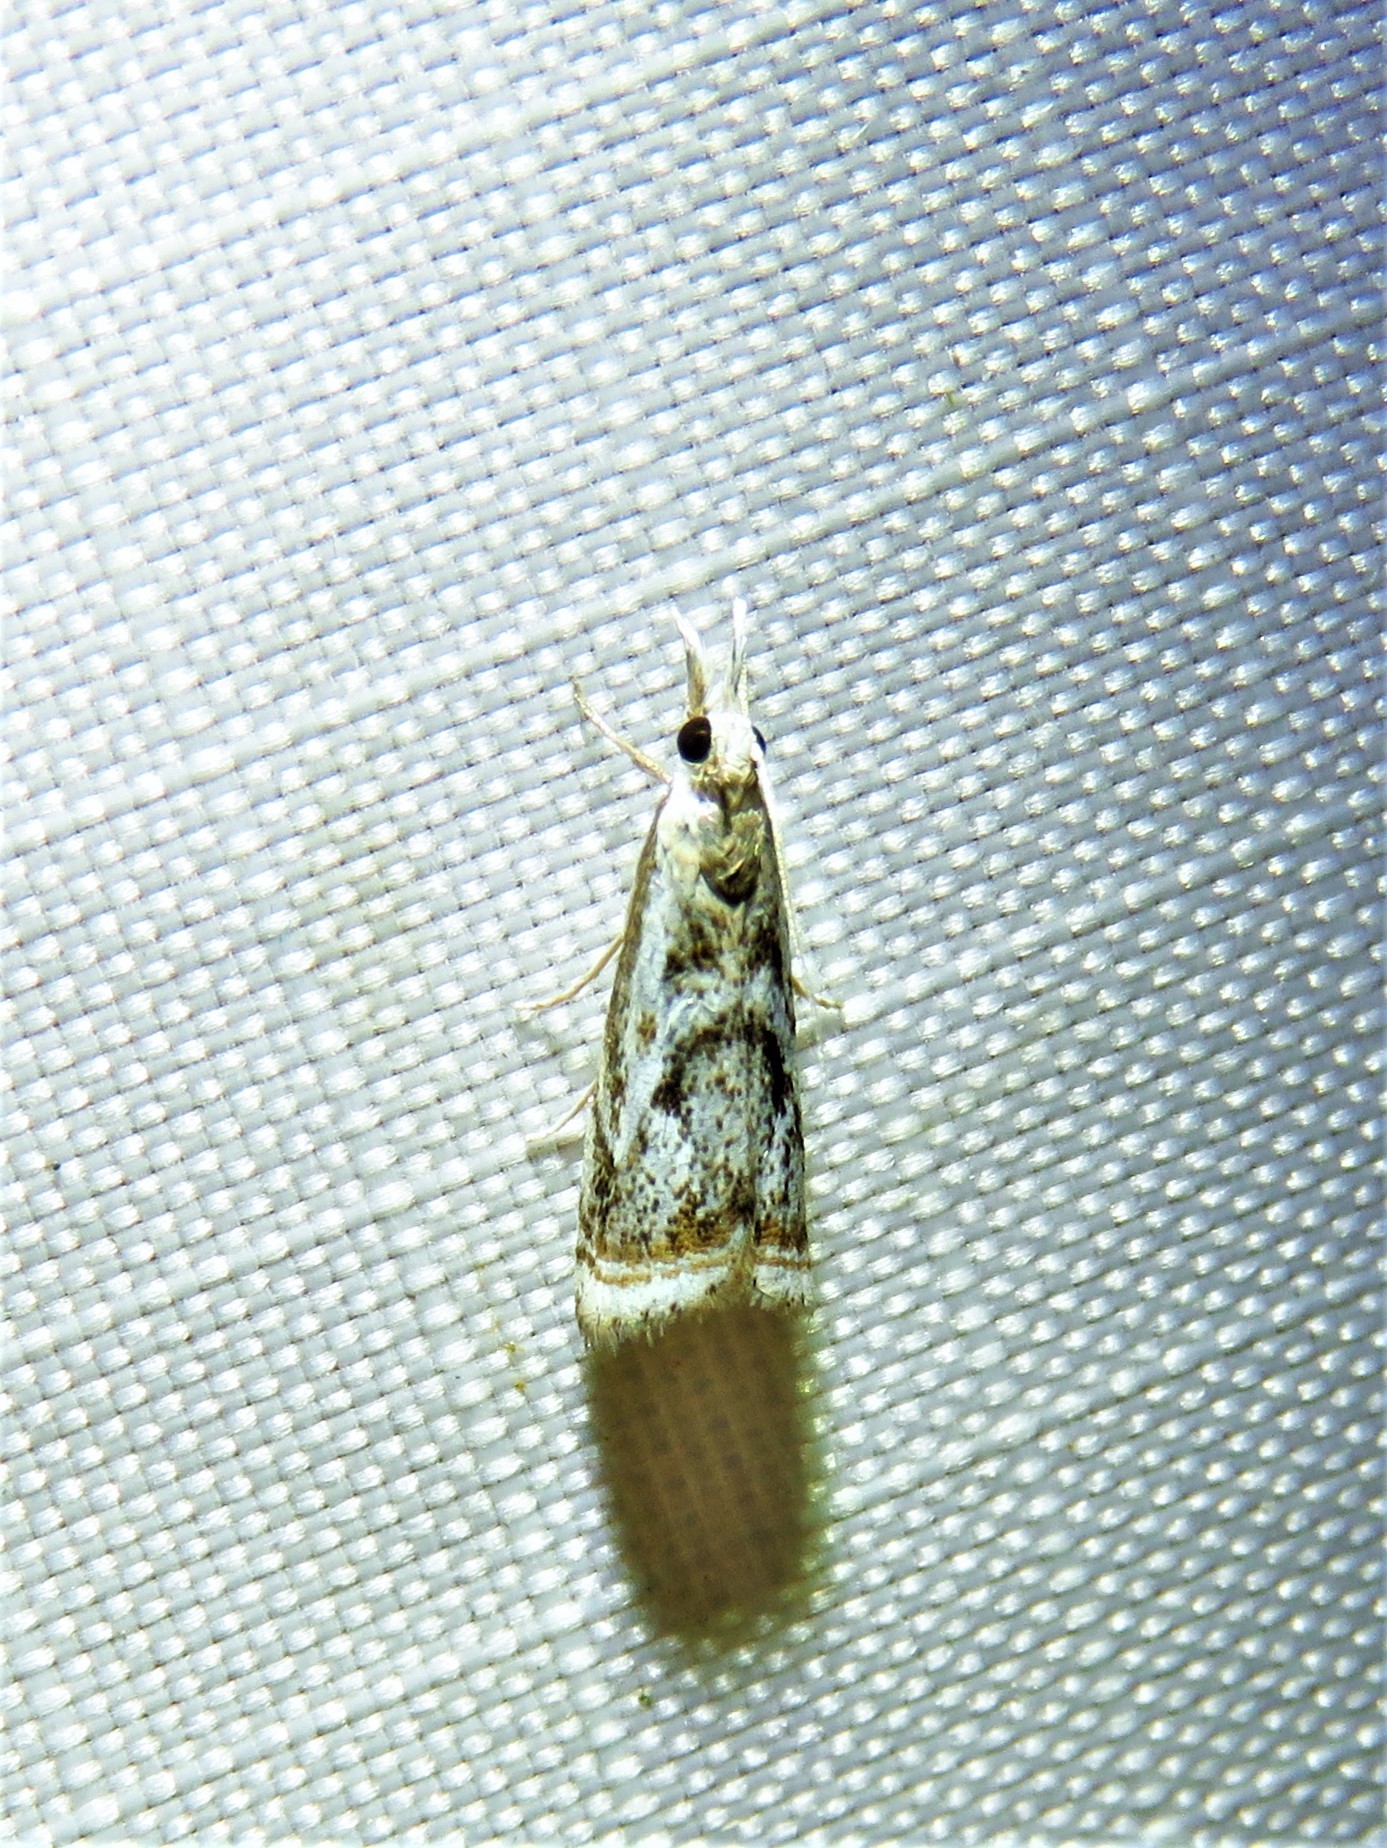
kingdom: Animalia
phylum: Arthropoda
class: Insecta
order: Lepidoptera
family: Crambidae
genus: Microcrambus
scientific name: Microcrambus elegans
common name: Elegant grass-veneer
